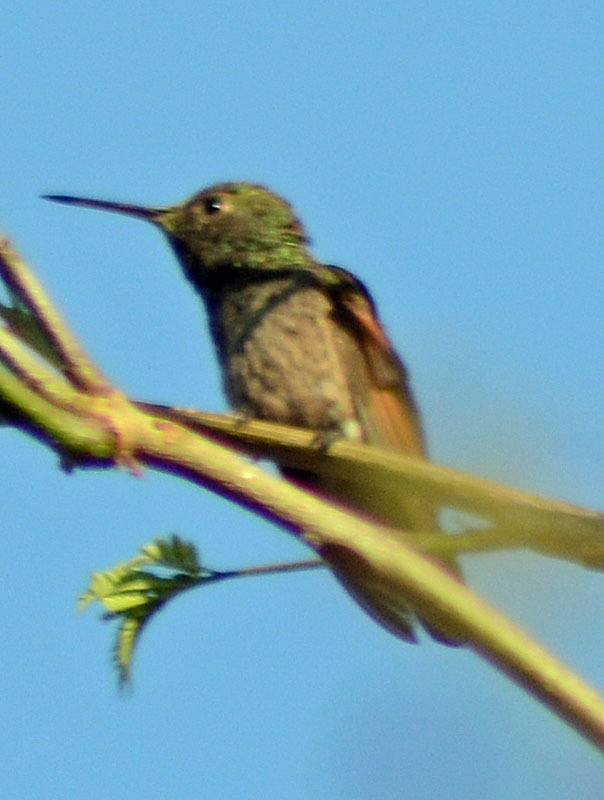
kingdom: Animalia
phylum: Chordata
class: Aves
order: Apodiformes
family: Trochilidae
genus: Saucerottia
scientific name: Saucerottia beryllina
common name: Berylline hummingbird
